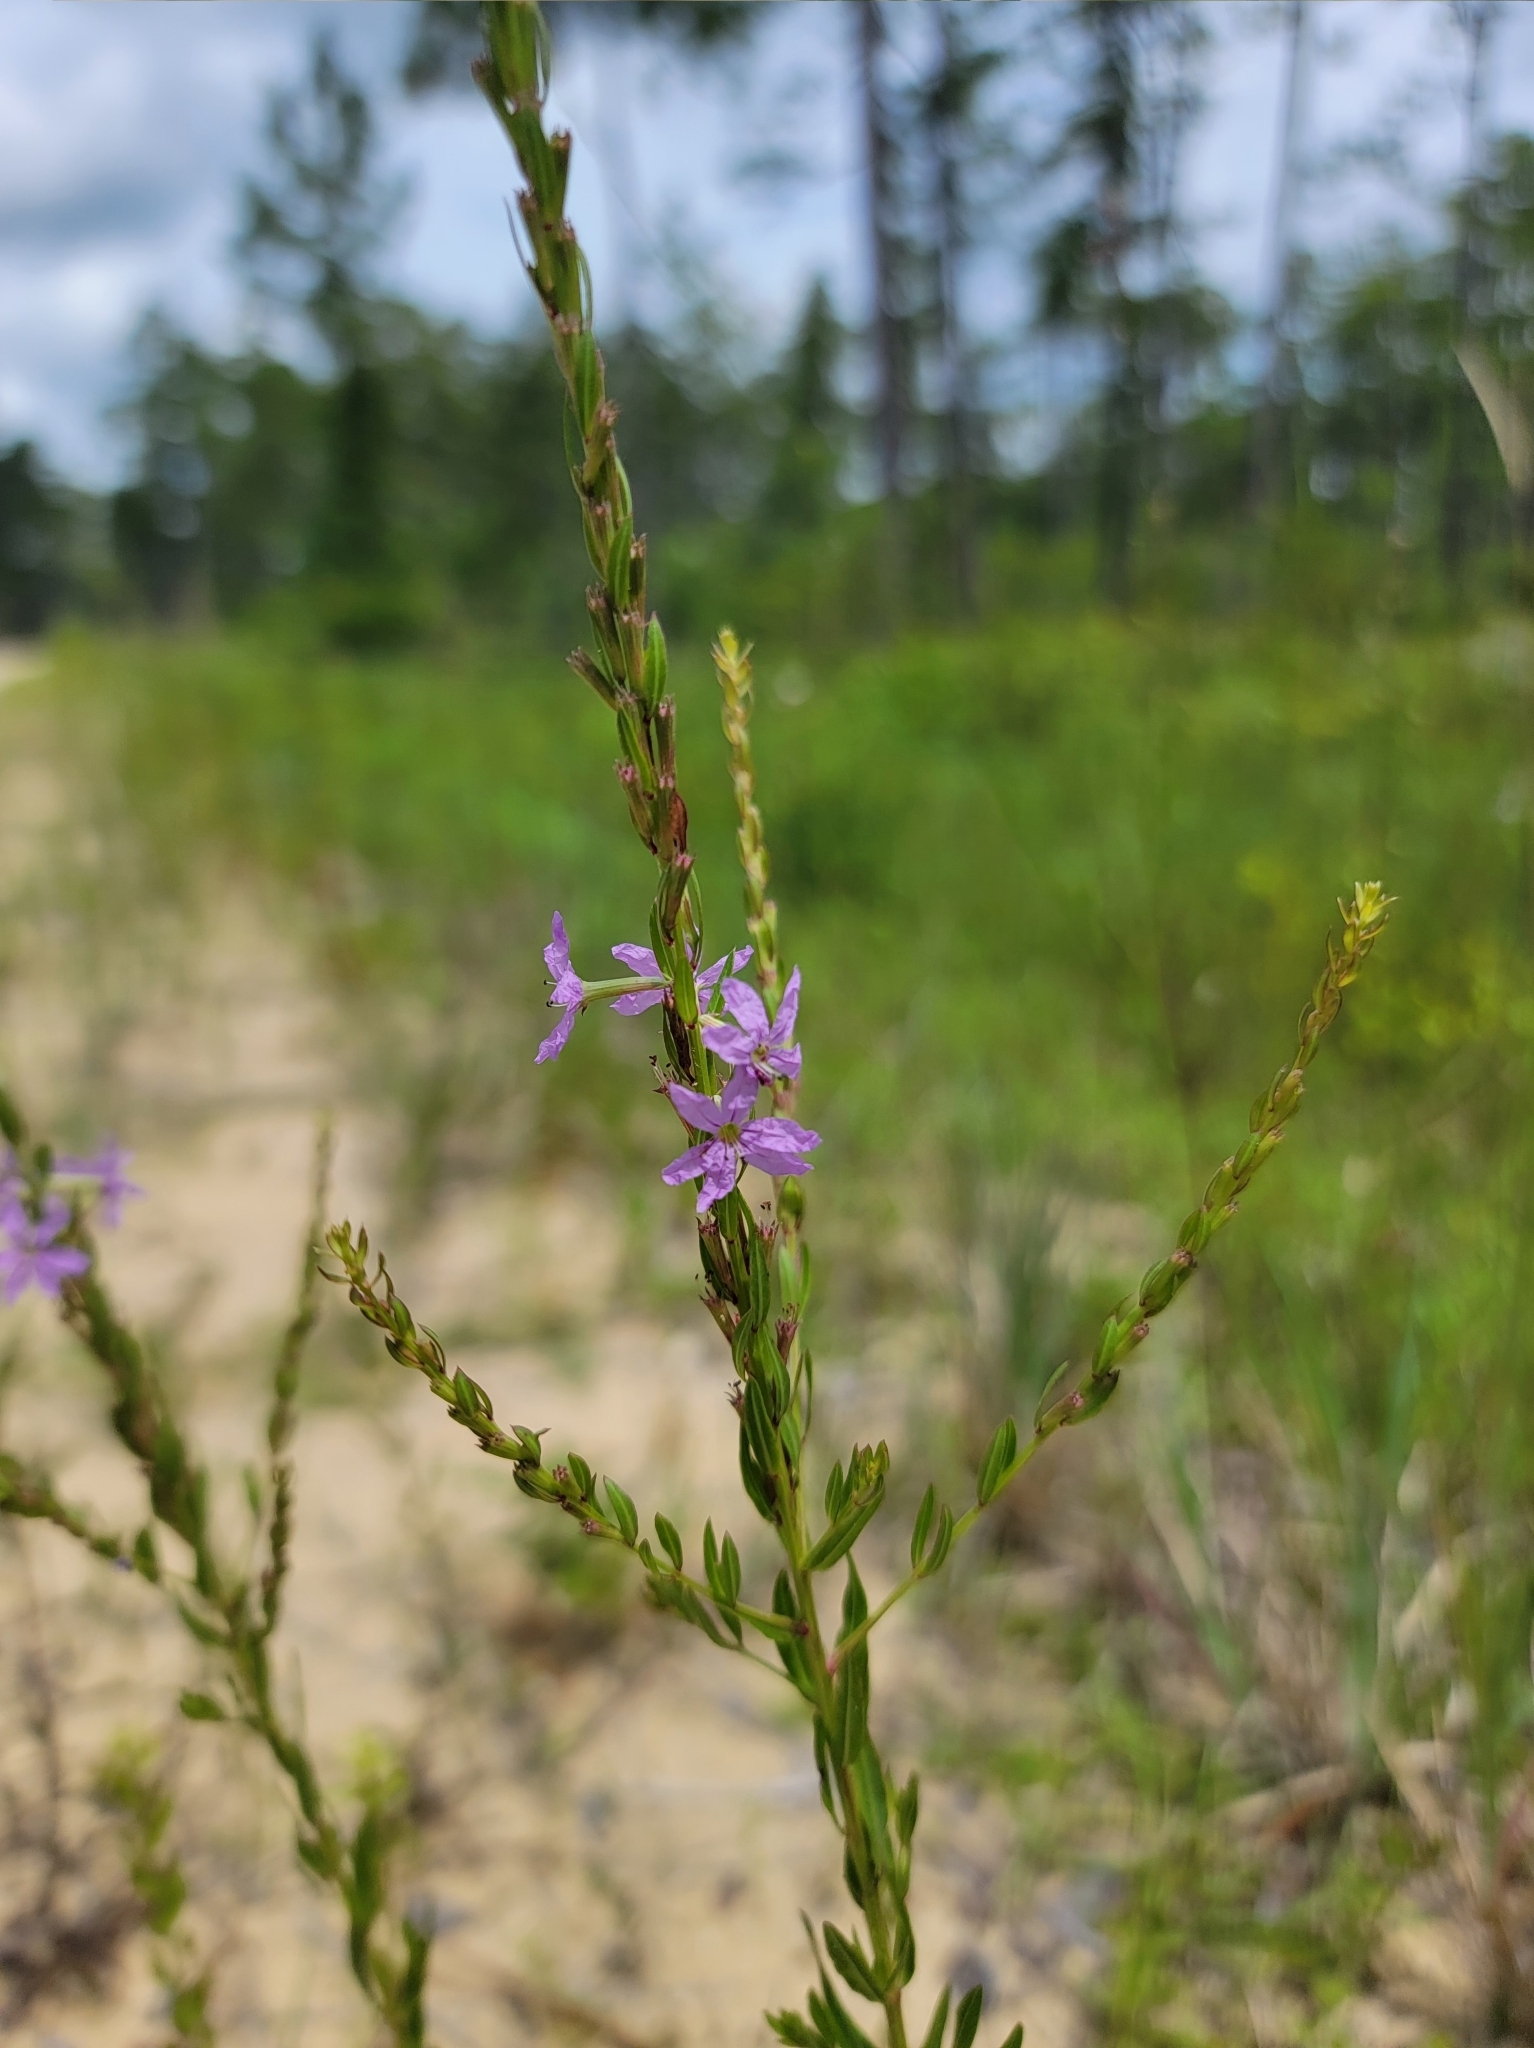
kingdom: Plantae
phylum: Tracheophyta
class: Magnoliopsida
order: Myrtales
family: Lythraceae
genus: Lythrum
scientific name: Lythrum alatum
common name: Winged loosestrife
